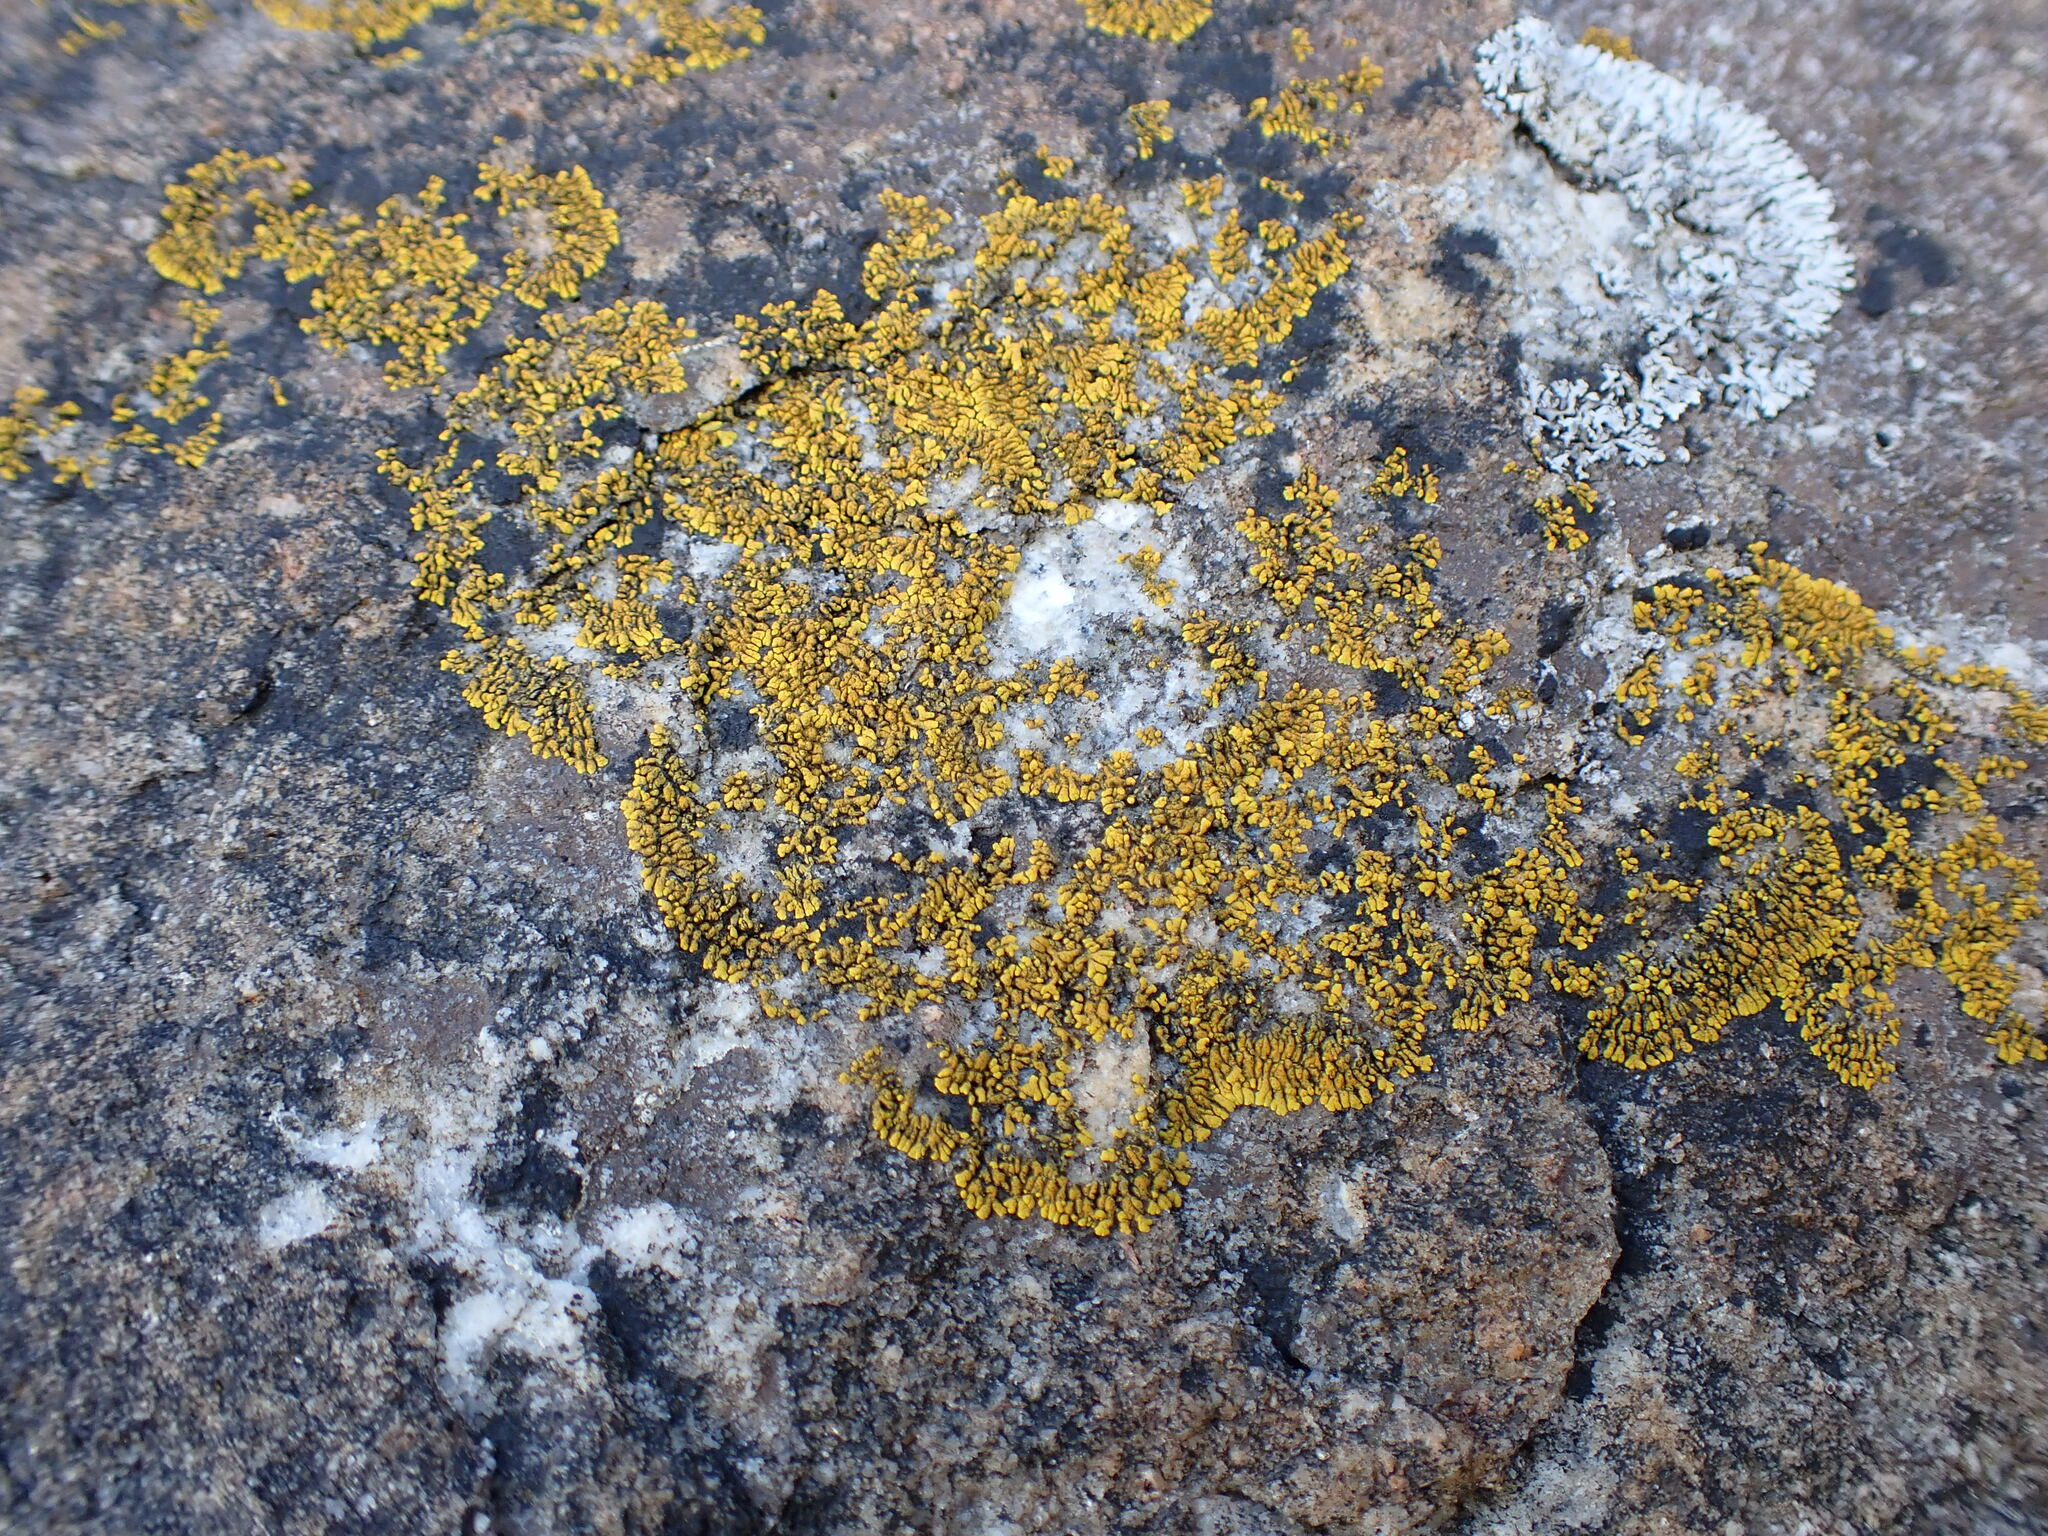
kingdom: Fungi
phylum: Ascomycota
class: Lecanoromycetes
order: Teloschistales
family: Teloschistaceae
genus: Verrucoplaca
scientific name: Verrucoplaca verruculifera
